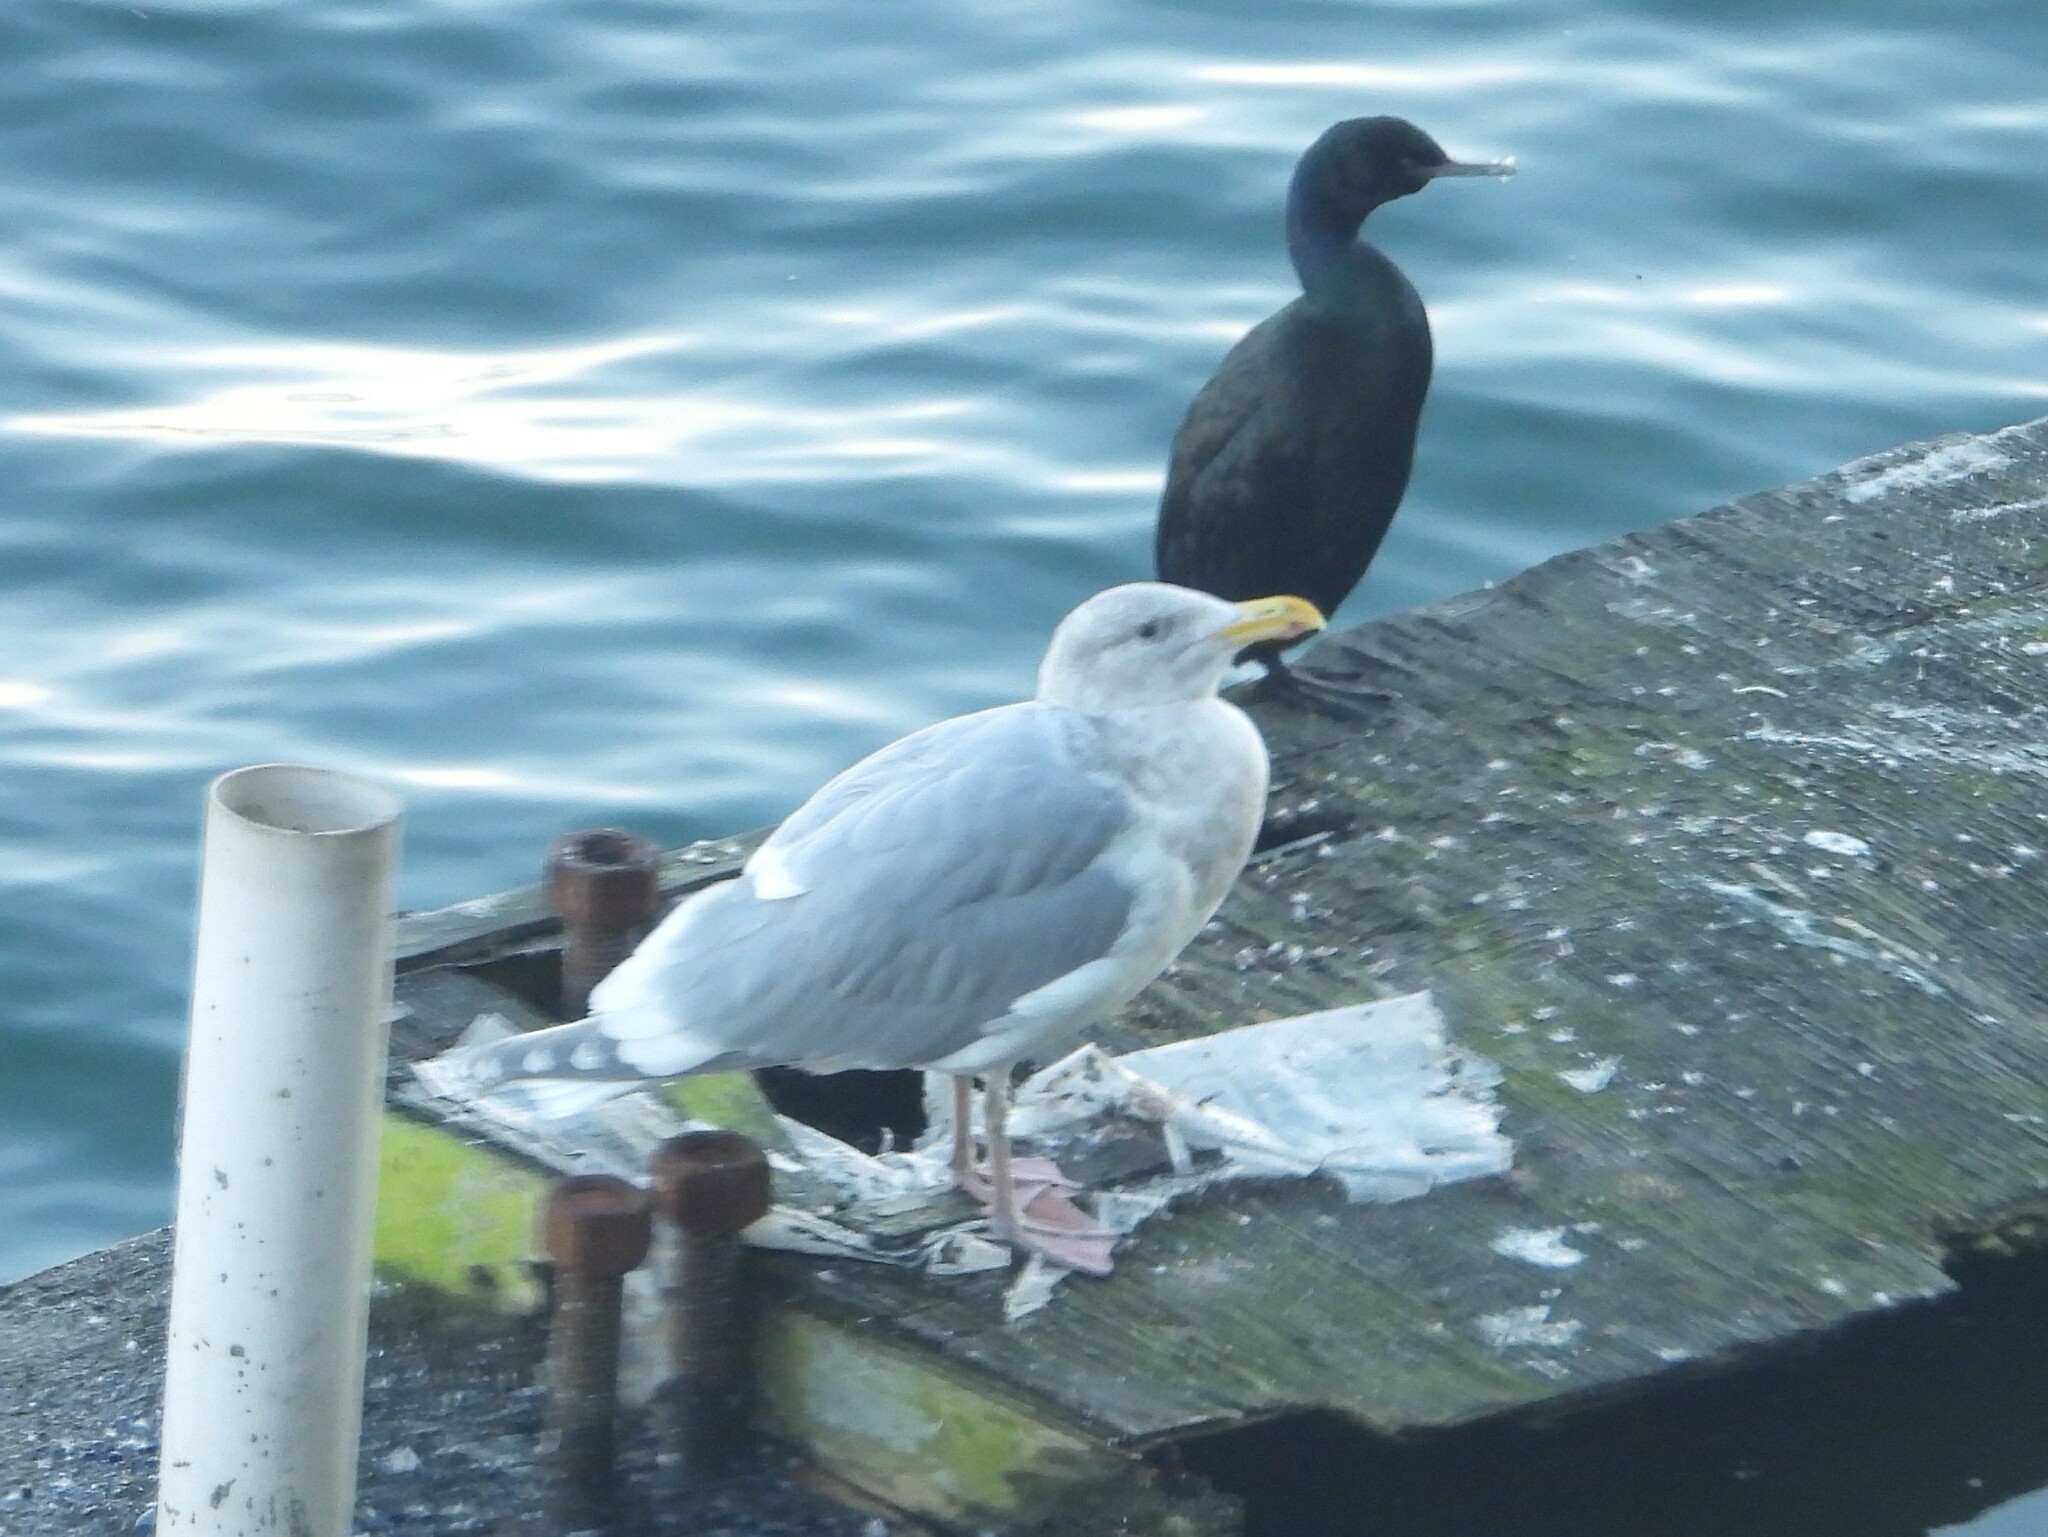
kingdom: Animalia
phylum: Chordata
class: Aves
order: Charadriiformes
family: Laridae
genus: Larus
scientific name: Larus glaucescens
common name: Glaucous-winged gull
